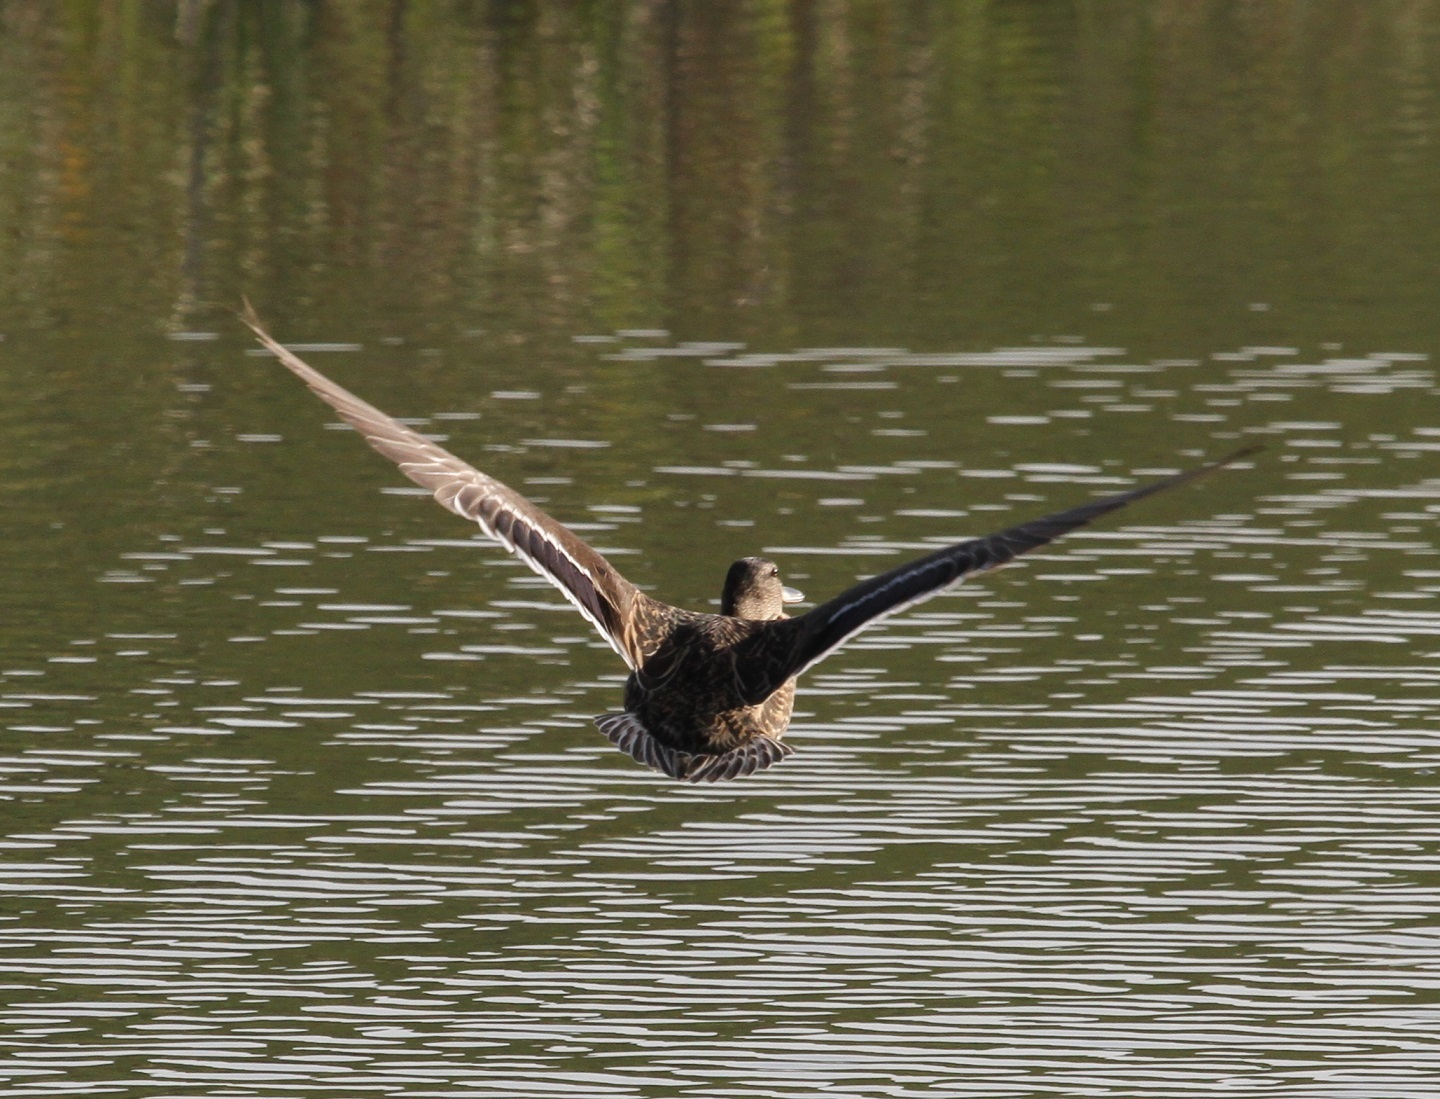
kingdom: Animalia
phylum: Chordata
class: Aves
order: Anseriformes
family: Anatidae
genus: Anas
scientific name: Anas platyrhynchos
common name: Mallard
